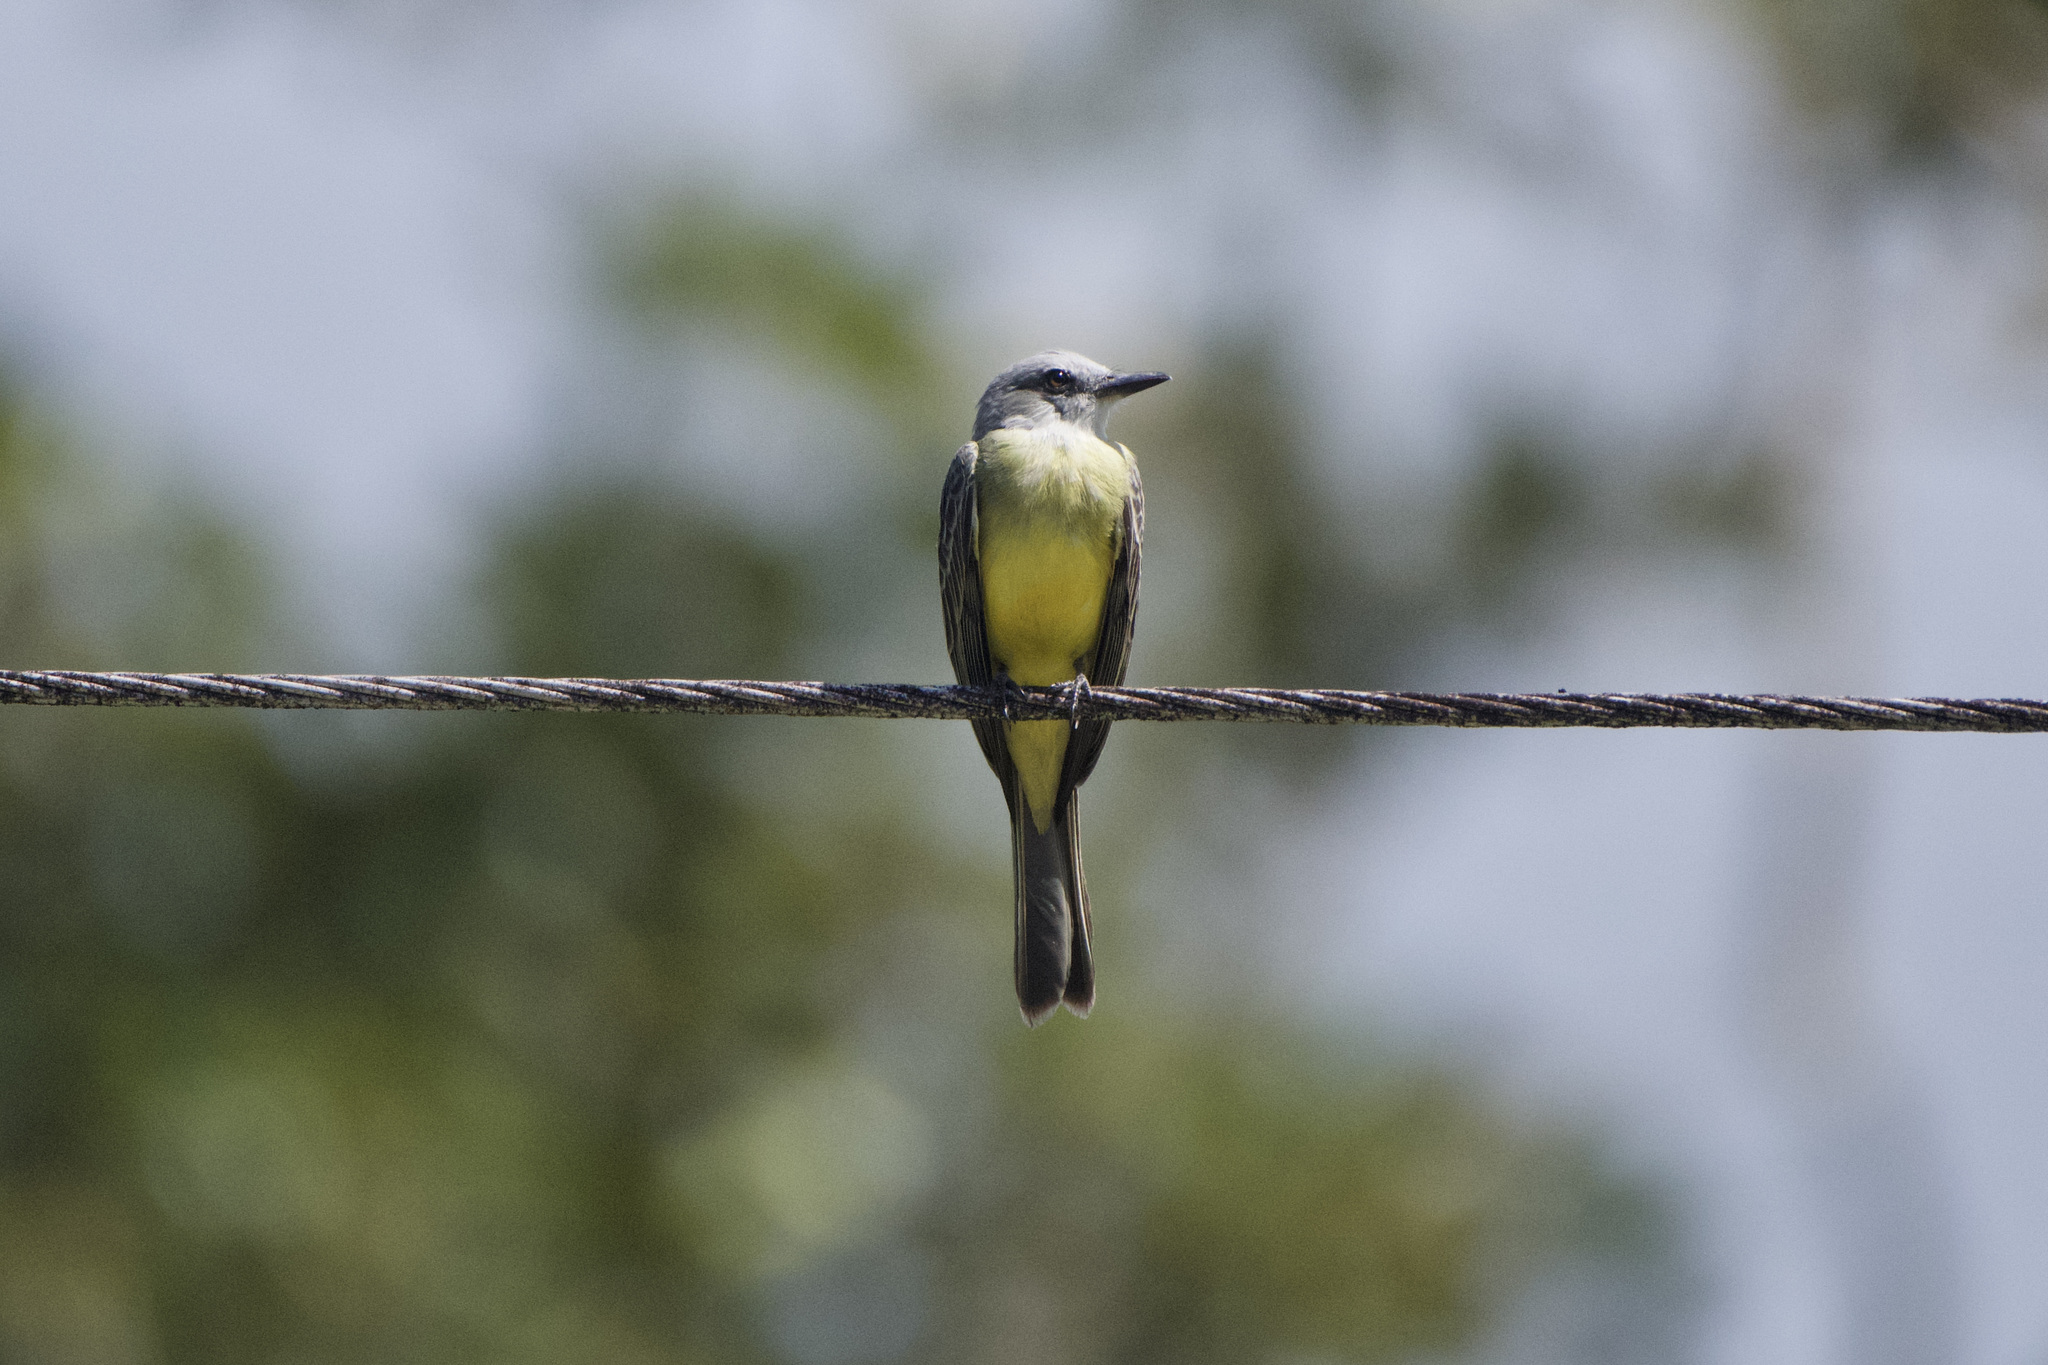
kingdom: Animalia
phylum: Chordata
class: Aves
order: Passeriformes
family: Tyrannidae
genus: Tyrannus
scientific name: Tyrannus melancholicus
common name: Tropical kingbird
